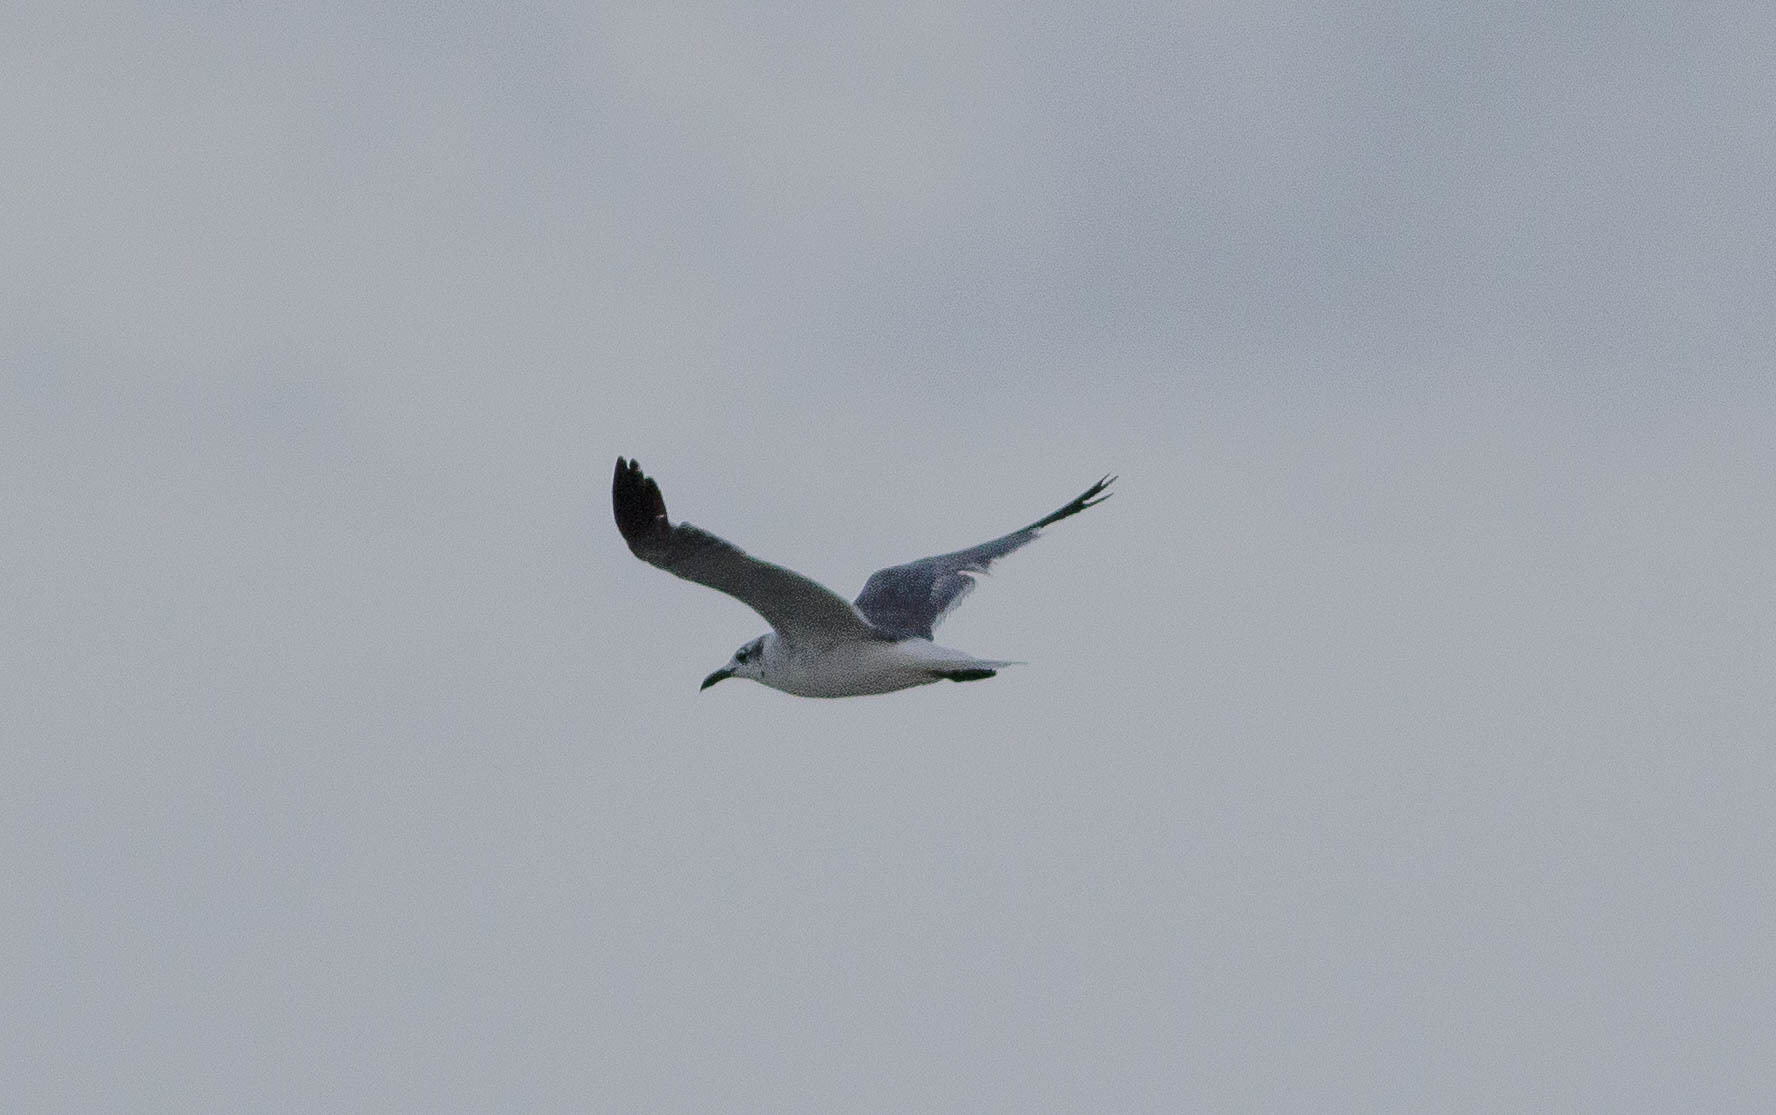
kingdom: Animalia
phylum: Chordata
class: Aves
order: Charadriiformes
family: Laridae
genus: Leucophaeus
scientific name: Leucophaeus atricilla
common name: Laughing gull
